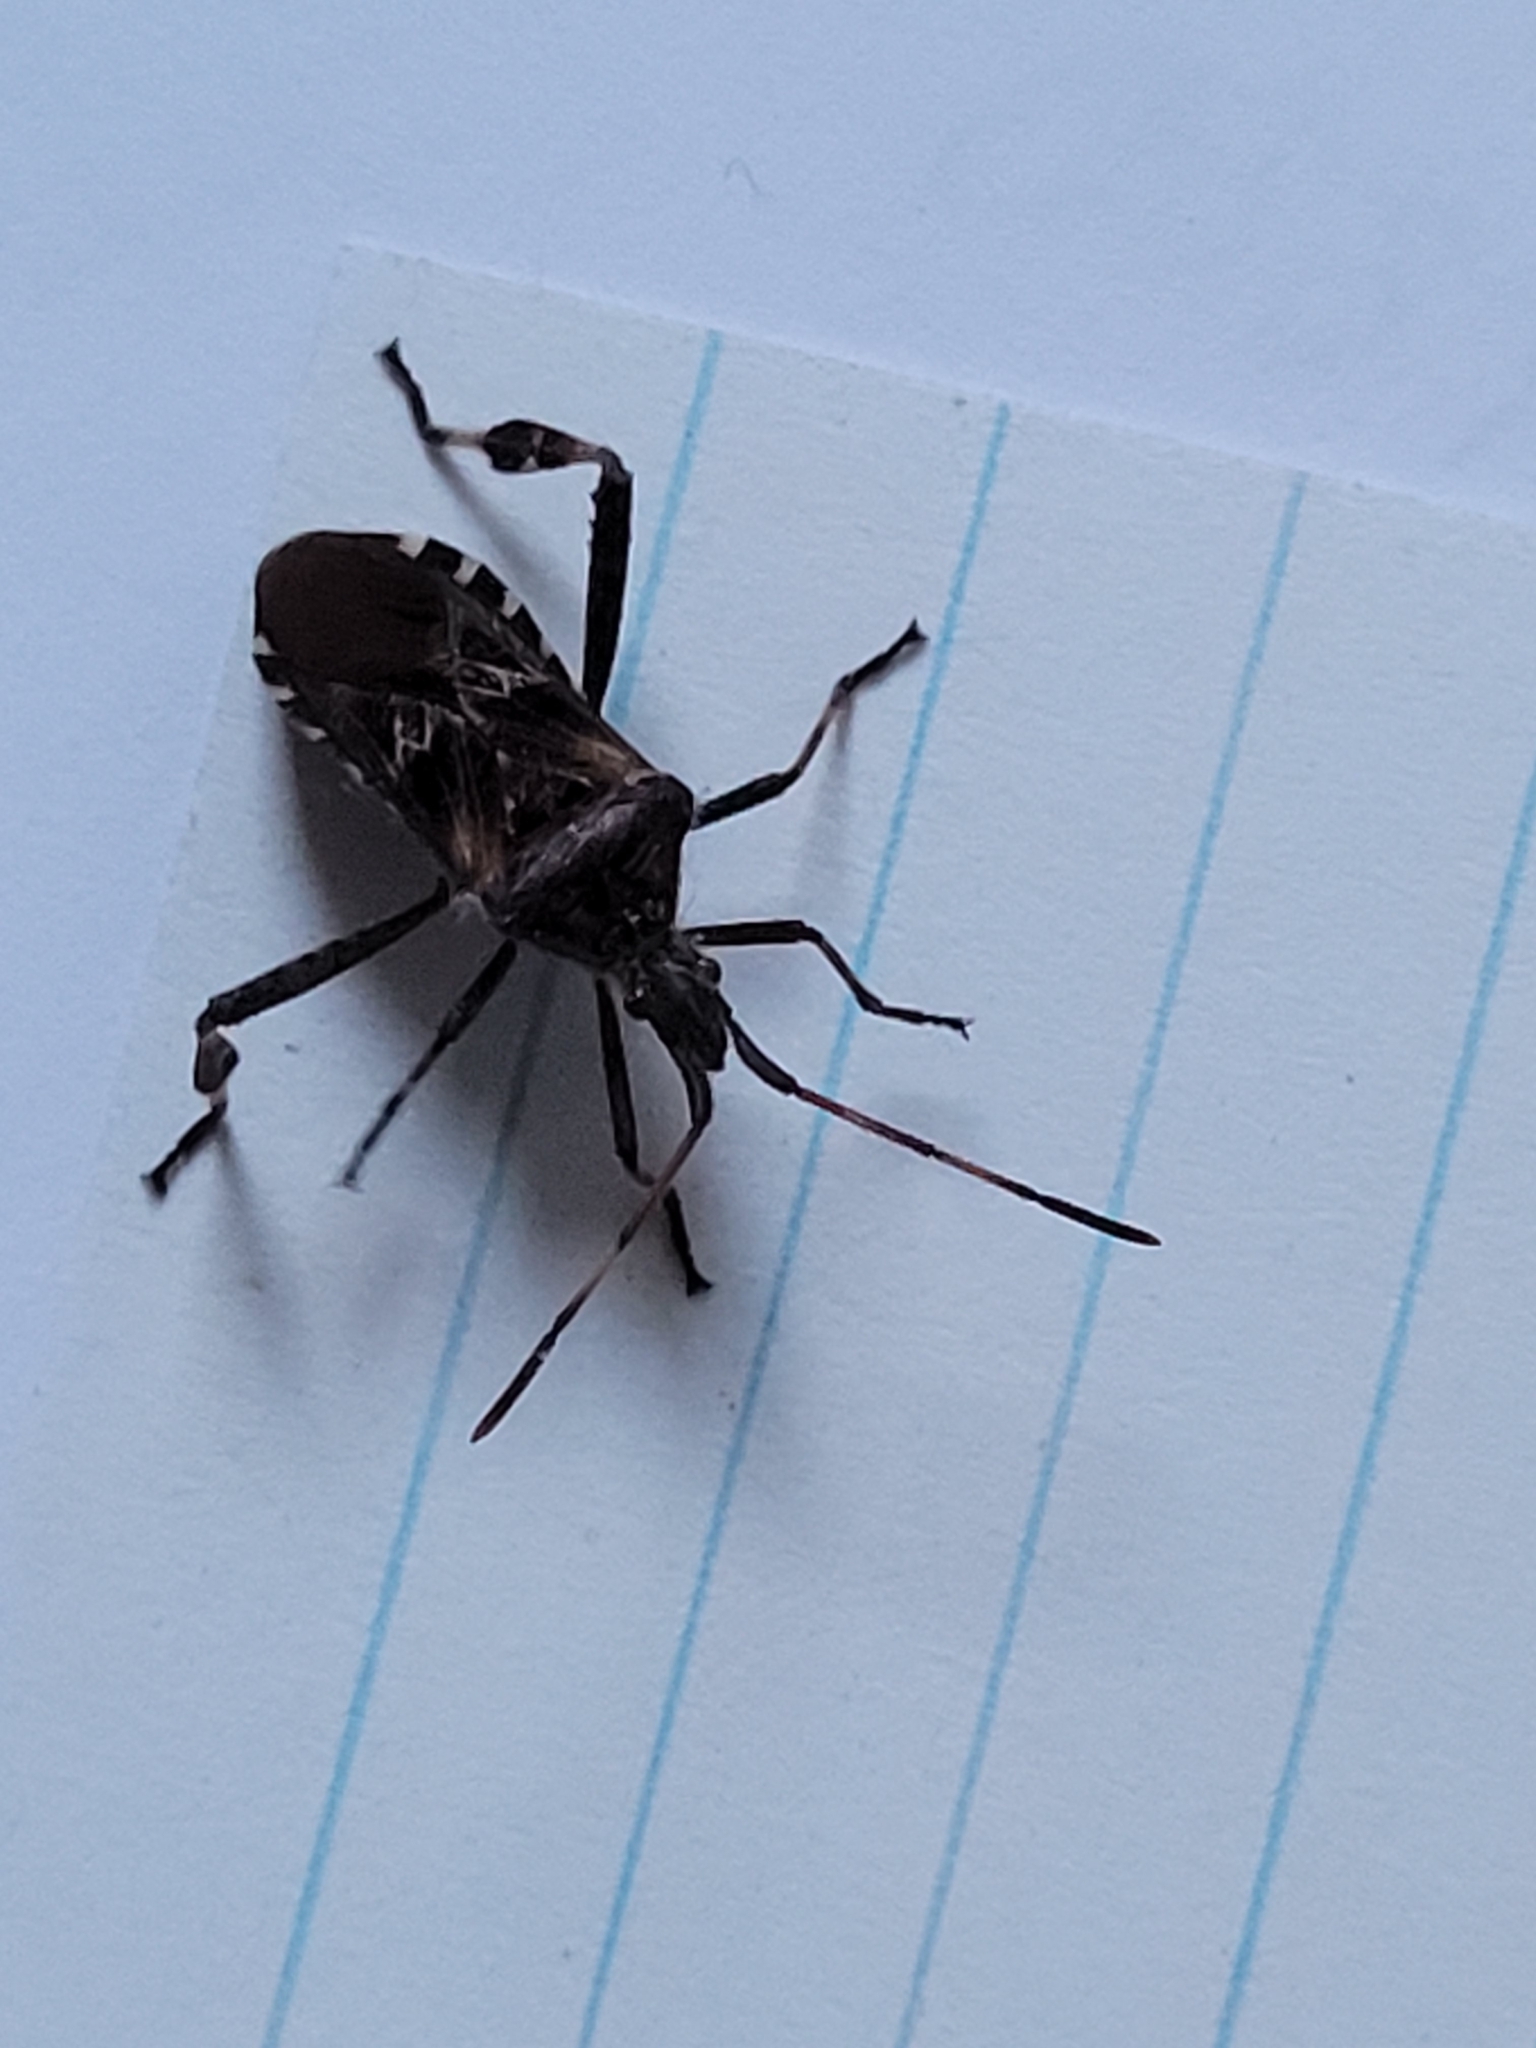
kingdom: Animalia
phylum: Arthropoda
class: Insecta
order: Hemiptera
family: Coreidae
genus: Leptoglossus
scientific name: Leptoglossus occidentalis
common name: Western conifer-seed bug
